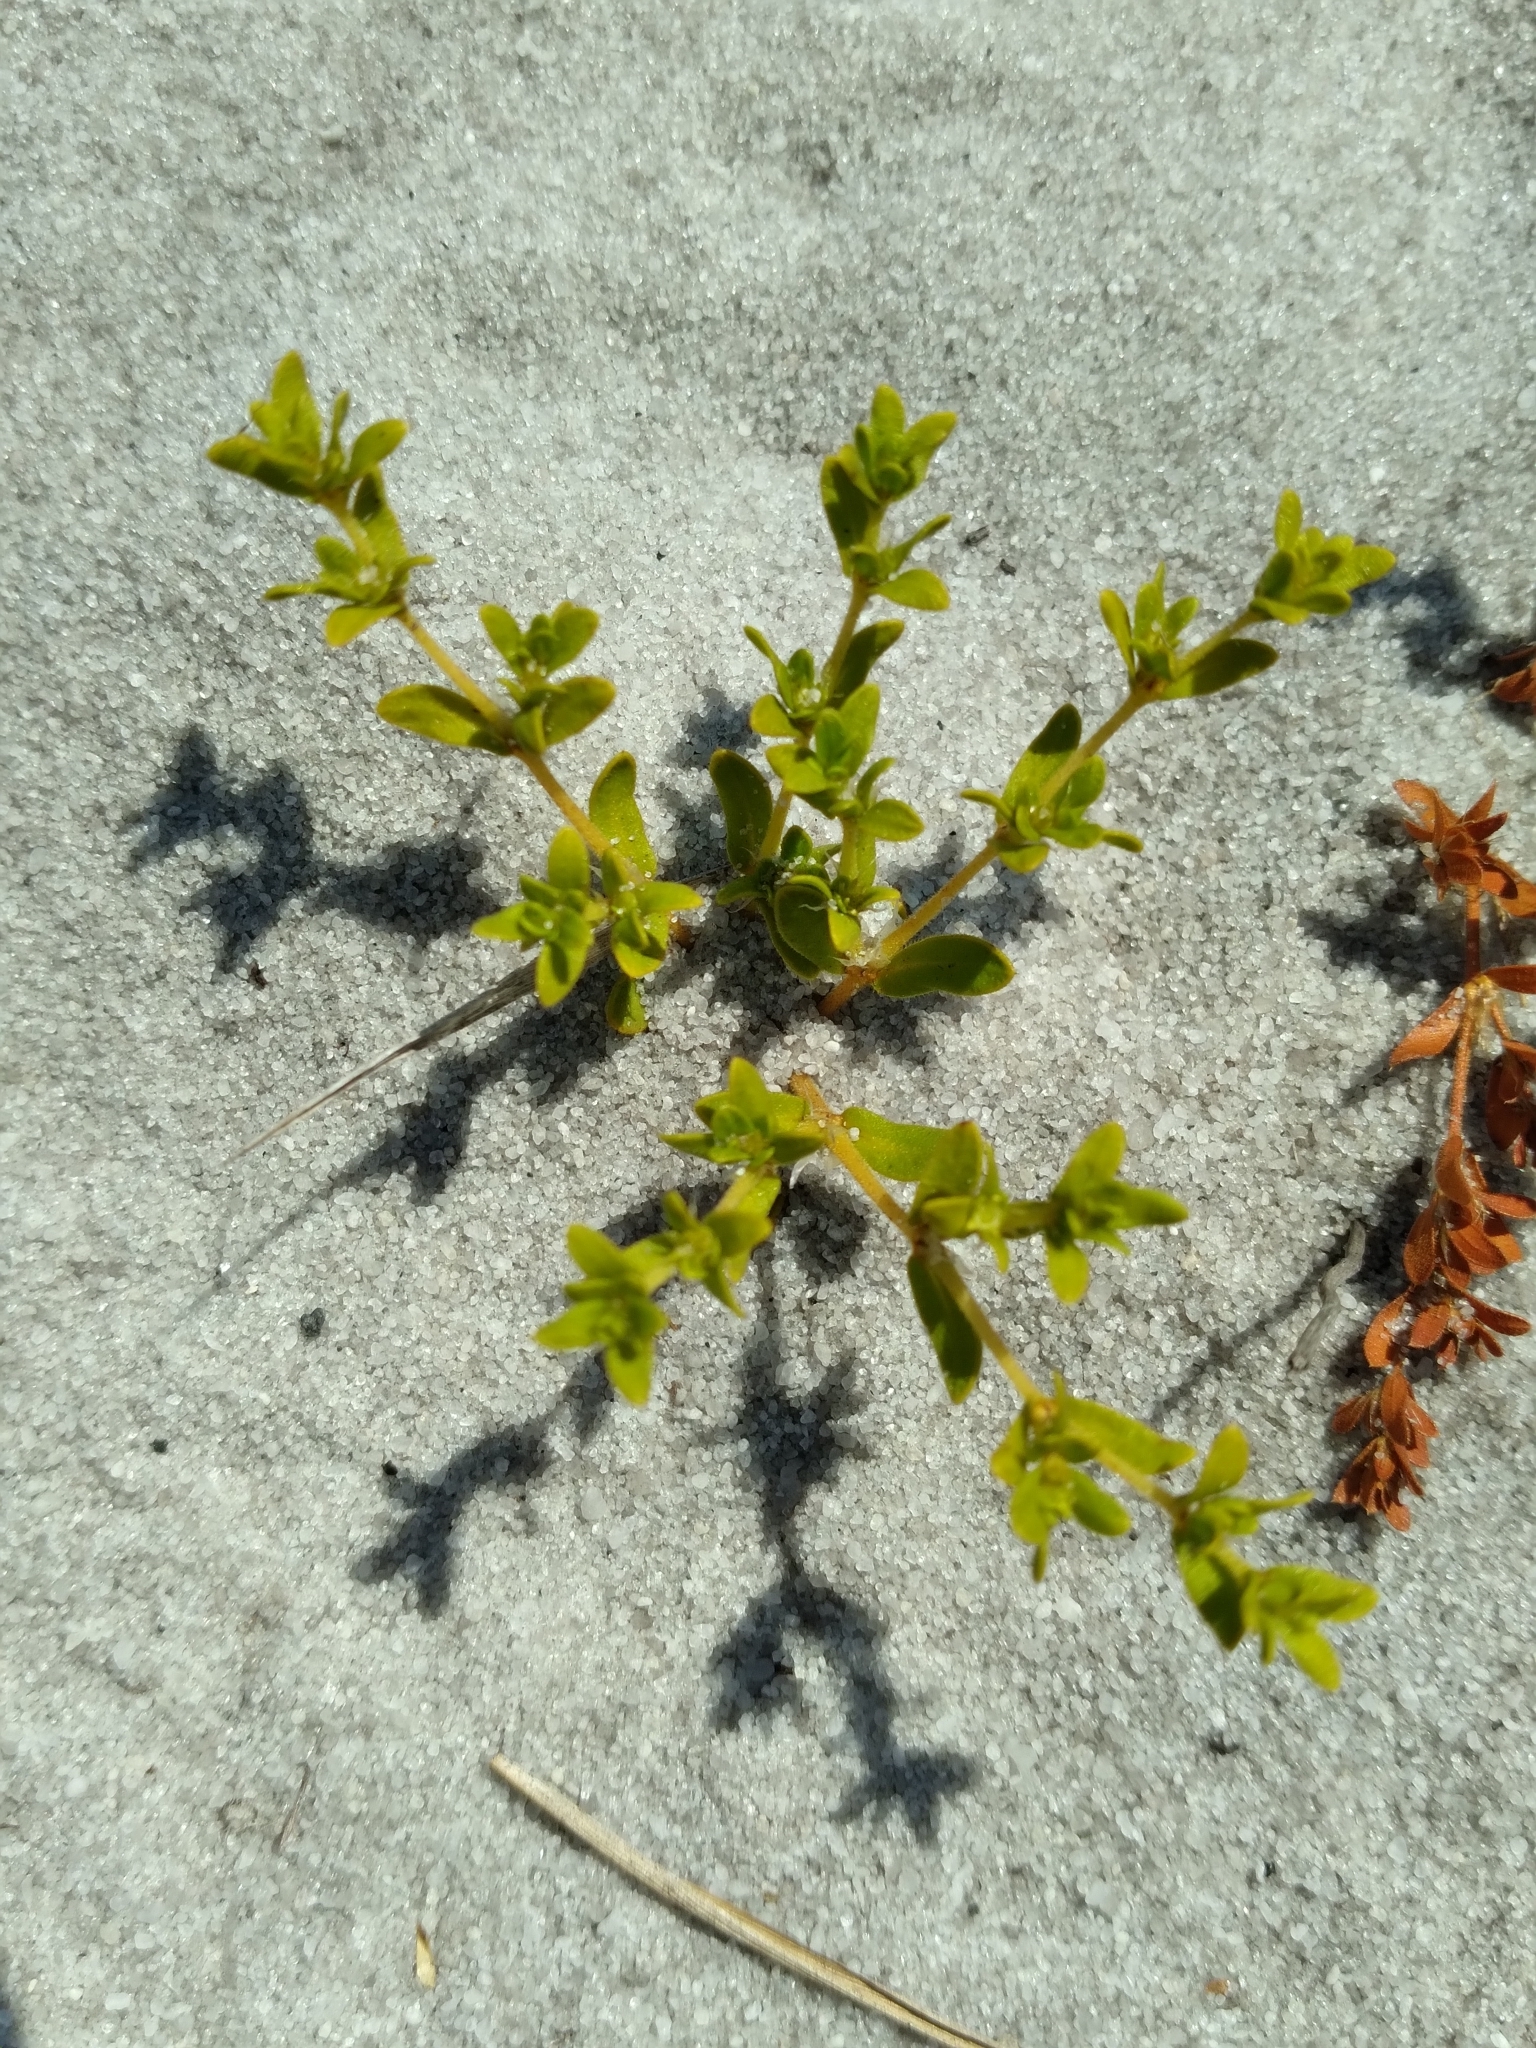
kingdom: Plantae
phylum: Tracheophyta
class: Magnoliopsida
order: Caryophyllales
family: Caryophyllaceae
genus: Paronychia
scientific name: Paronychia herniarioides
